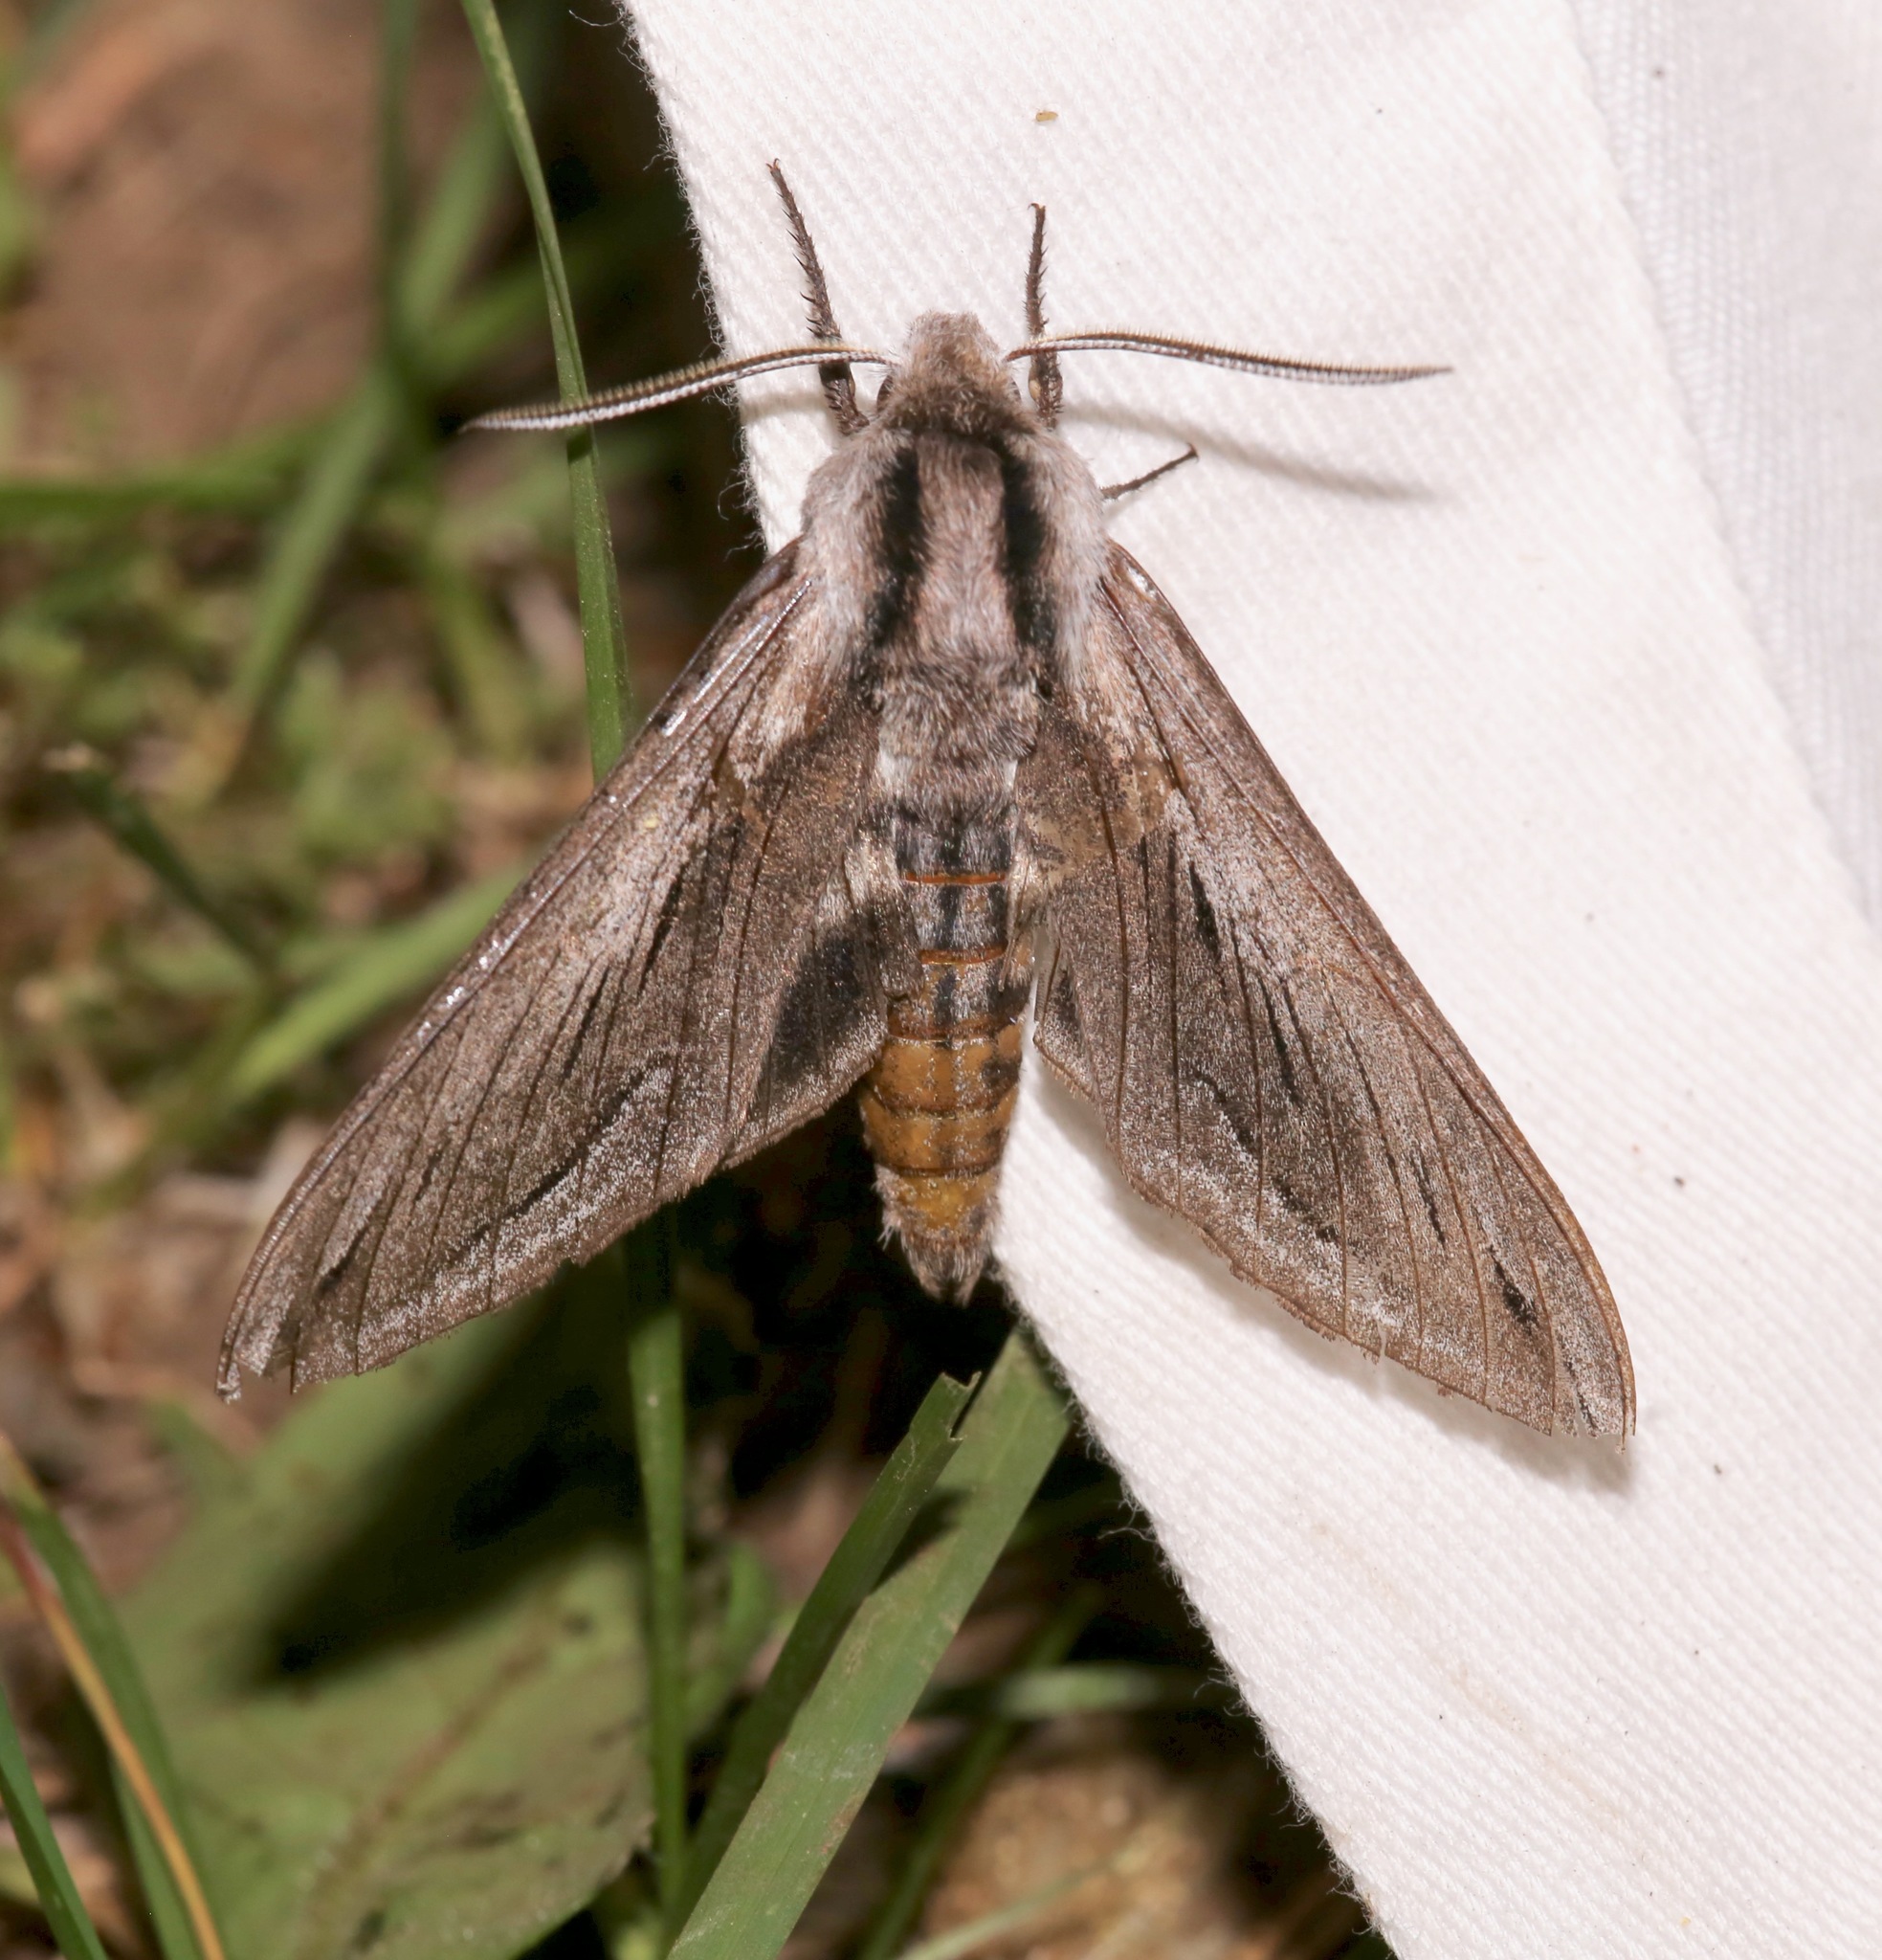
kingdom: Animalia
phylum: Arthropoda
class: Insecta
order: Lepidoptera
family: Sphingidae
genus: Sphinx
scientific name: Sphinx vashti
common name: Snowberry sphinx
